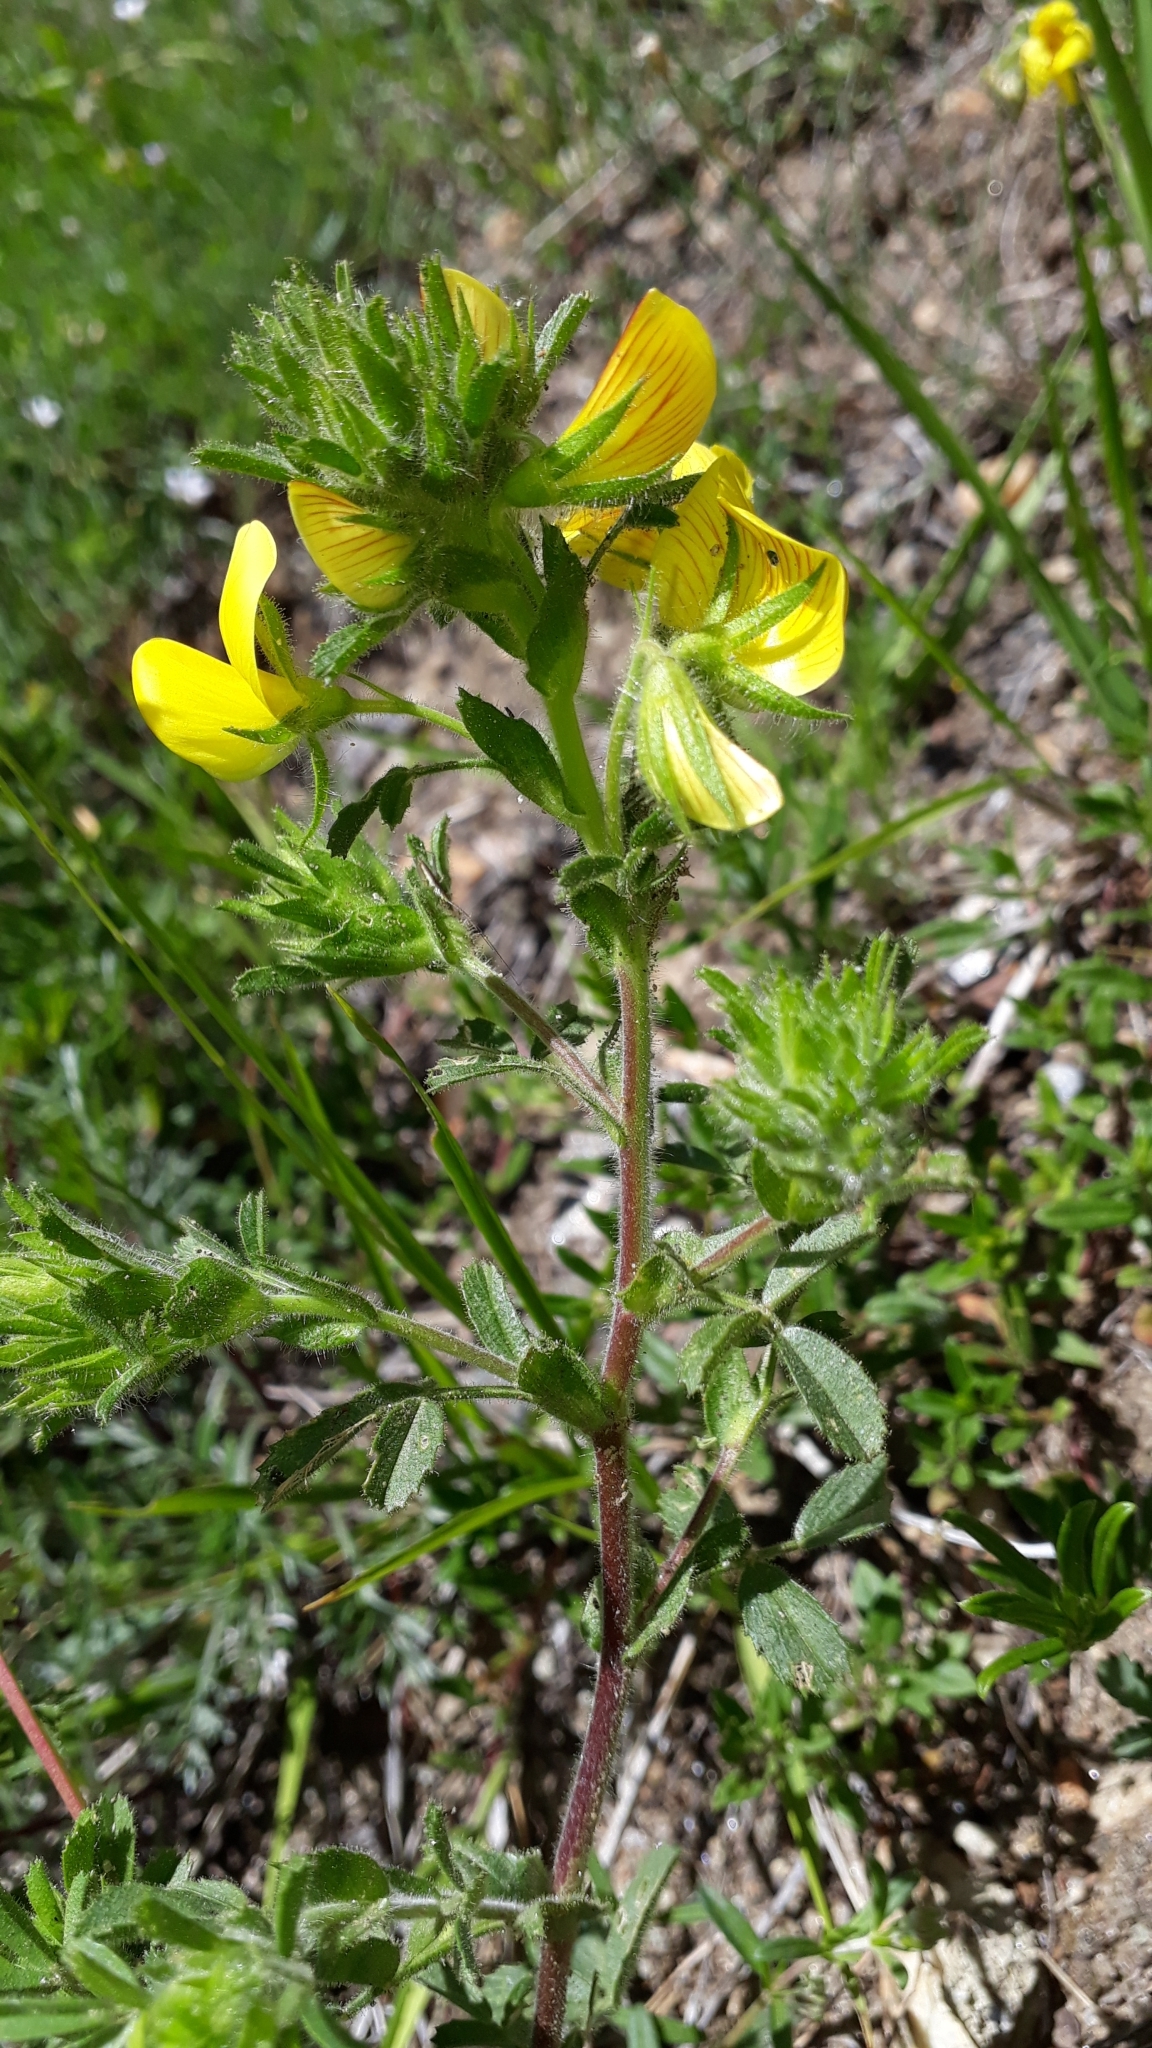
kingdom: Plantae
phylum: Tracheophyta
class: Magnoliopsida
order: Fabales
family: Fabaceae
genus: Ononis
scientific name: Ononis natrix
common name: Yellow restharrow
